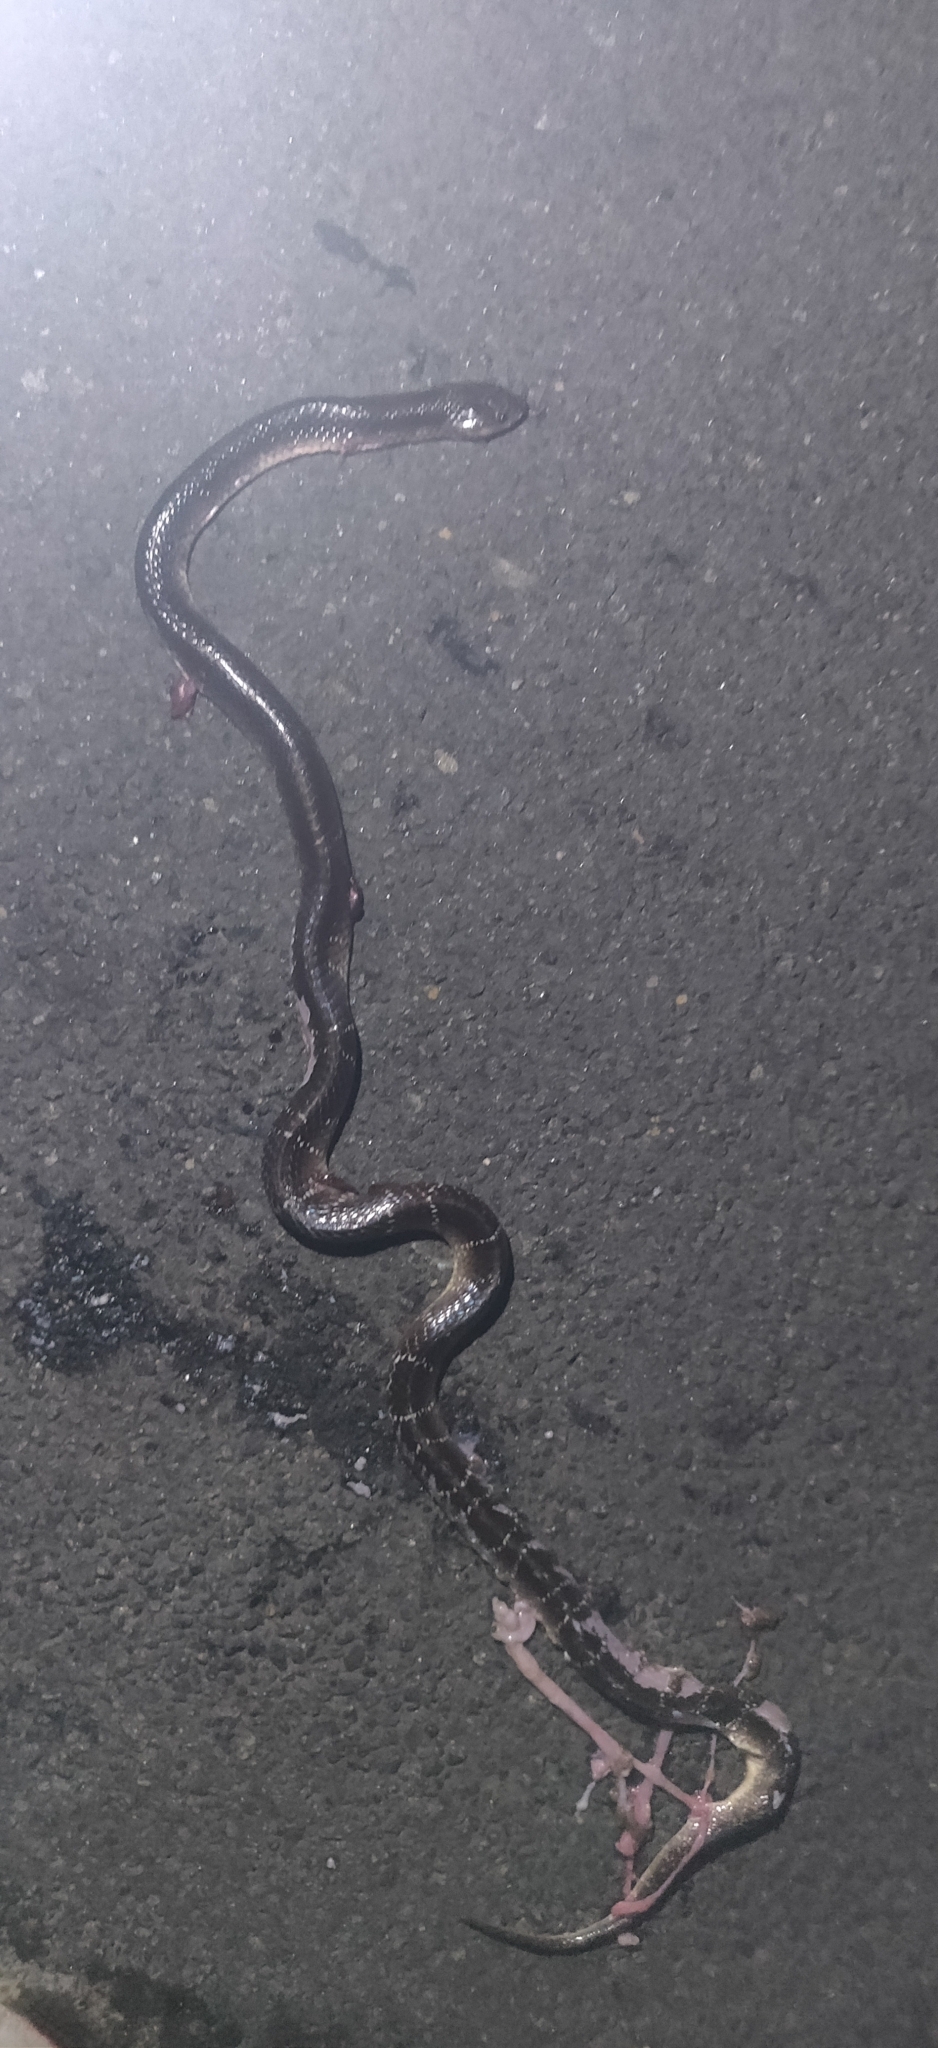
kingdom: Animalia
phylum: Chordata
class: Squamata
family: Elapidae
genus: Bungarus
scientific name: Bungarus caeruleus
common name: Common krait
